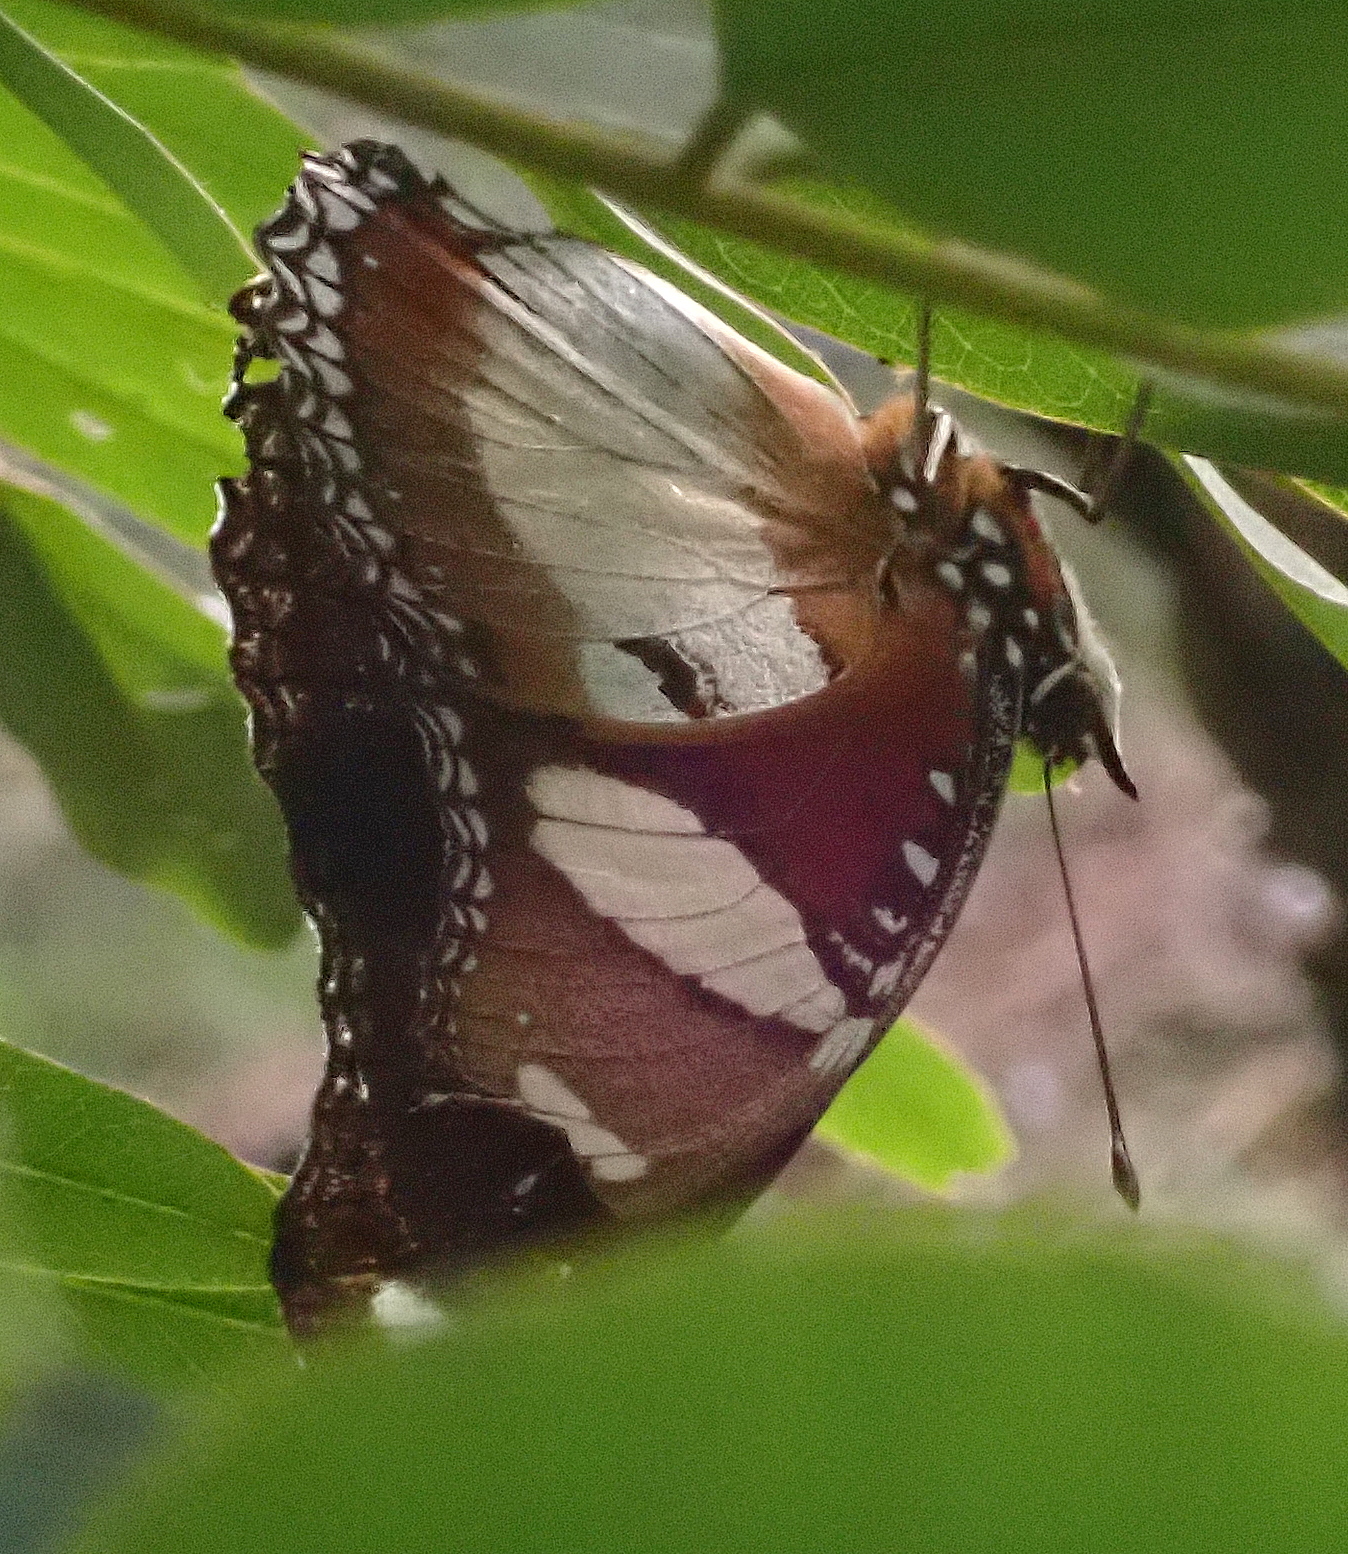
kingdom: Animalia
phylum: Arthropoda
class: Insecta
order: Lepidoptera
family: Nymphalidae
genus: Hypolimnas
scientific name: Hypolimnas misippus
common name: False plain tiger
